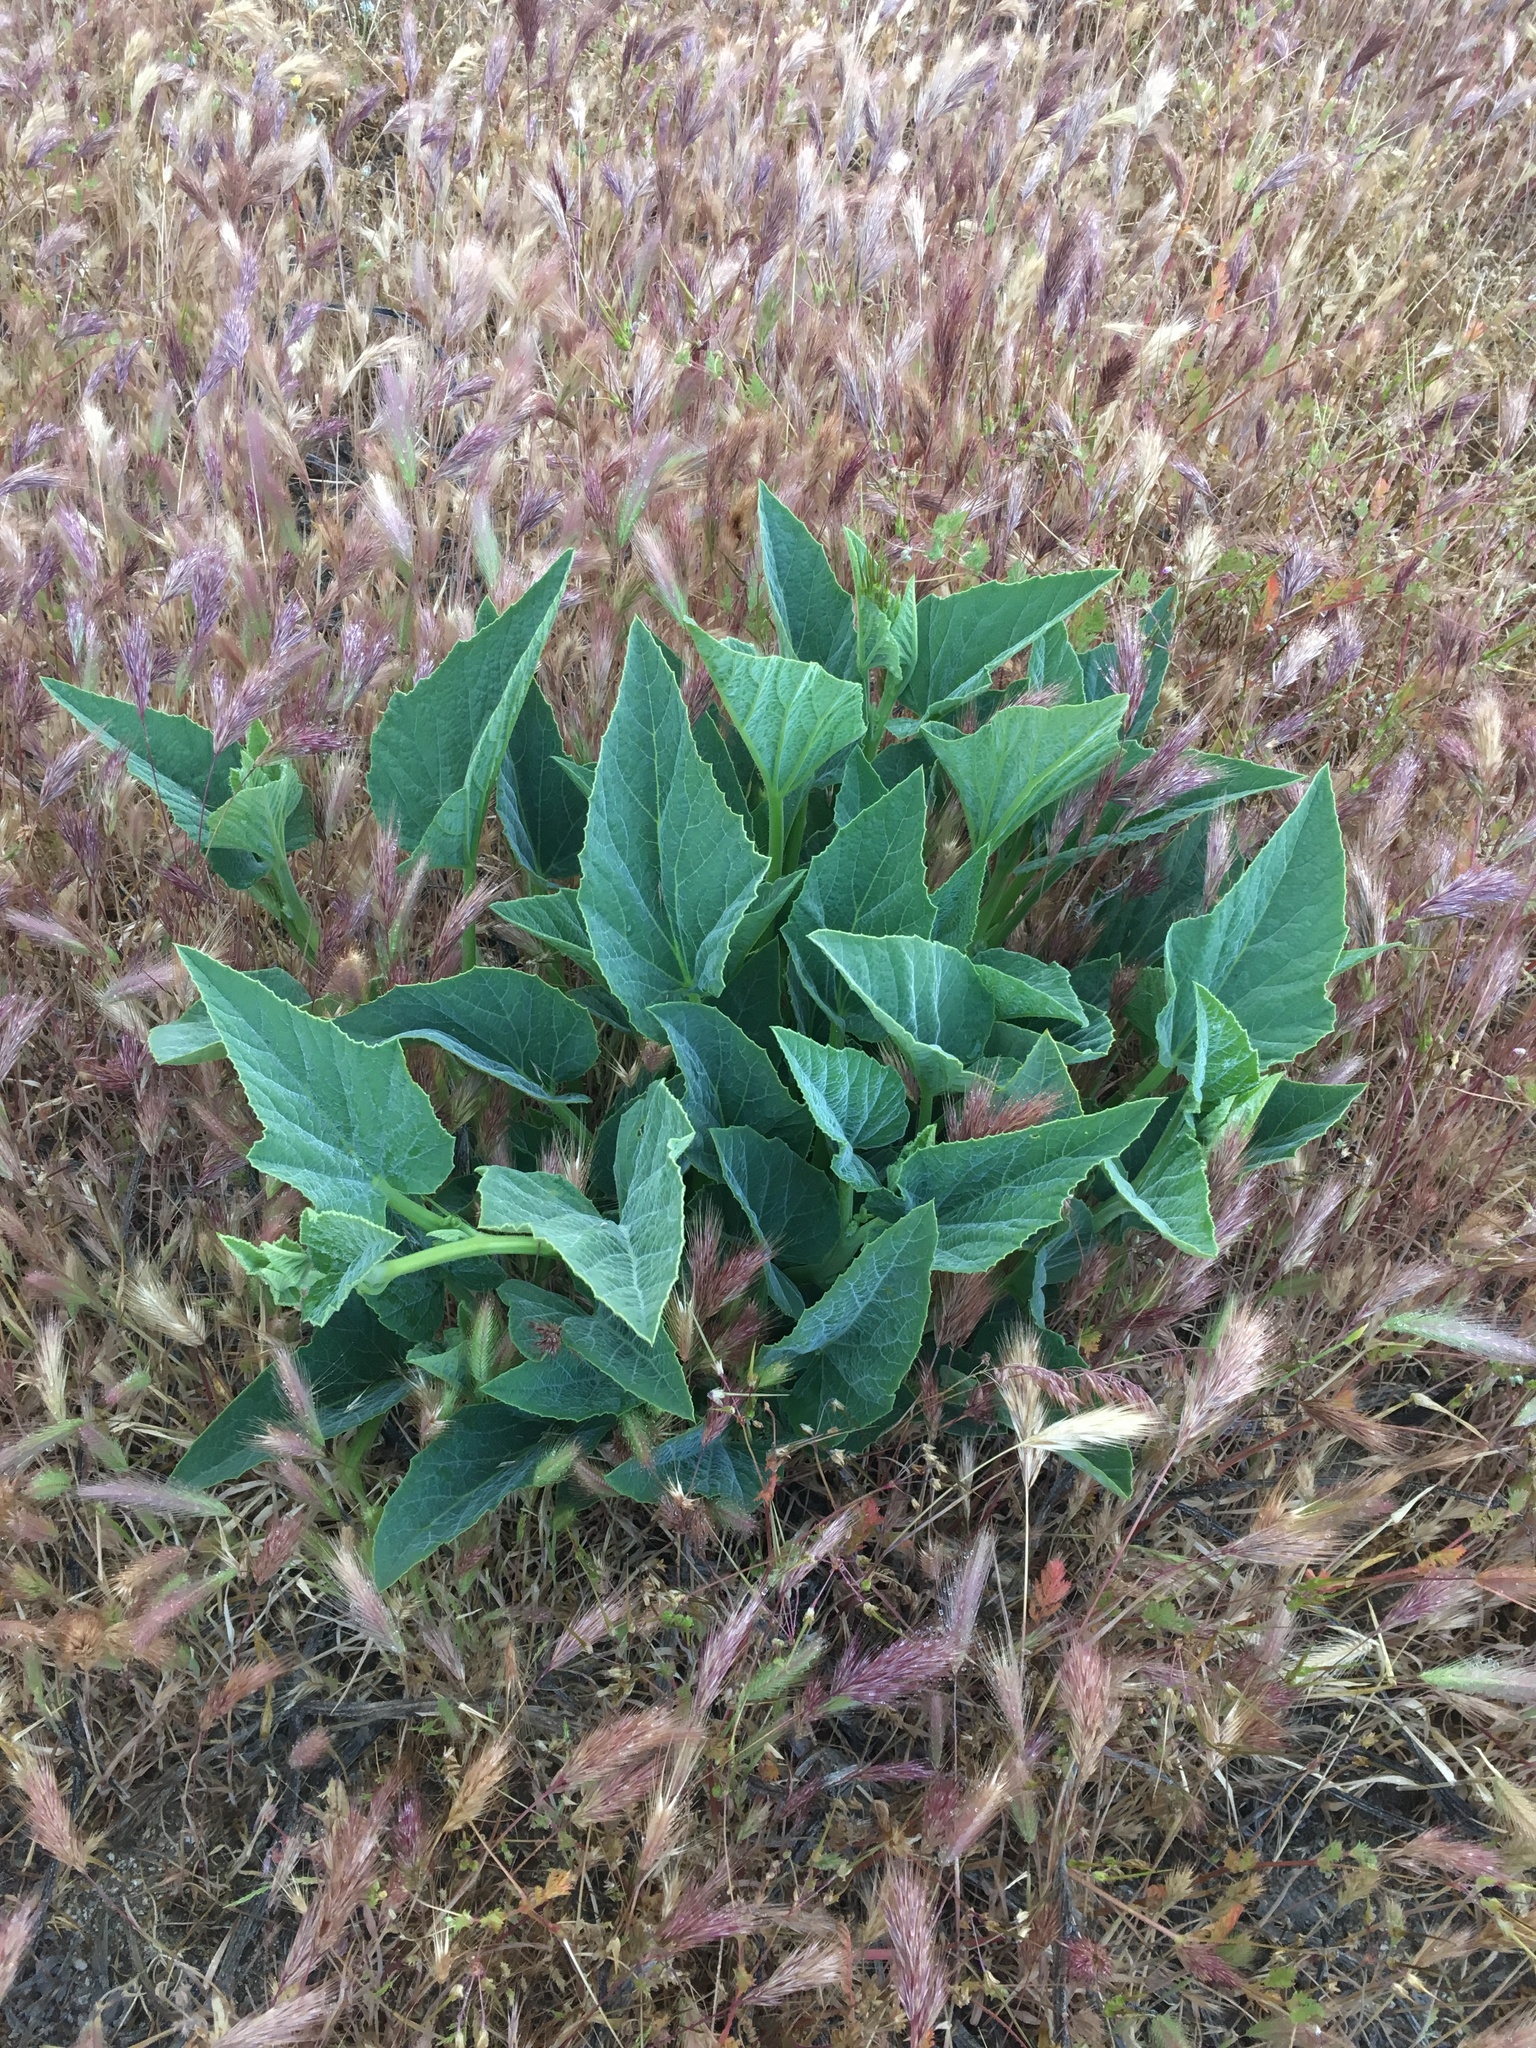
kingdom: Plantae
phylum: Tracheophyta
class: Magnoliopsida
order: Cucurbitales
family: Cucurbitaceae
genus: Cucurbita
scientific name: Cucurbita foetidissima
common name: Buffalo gourd
